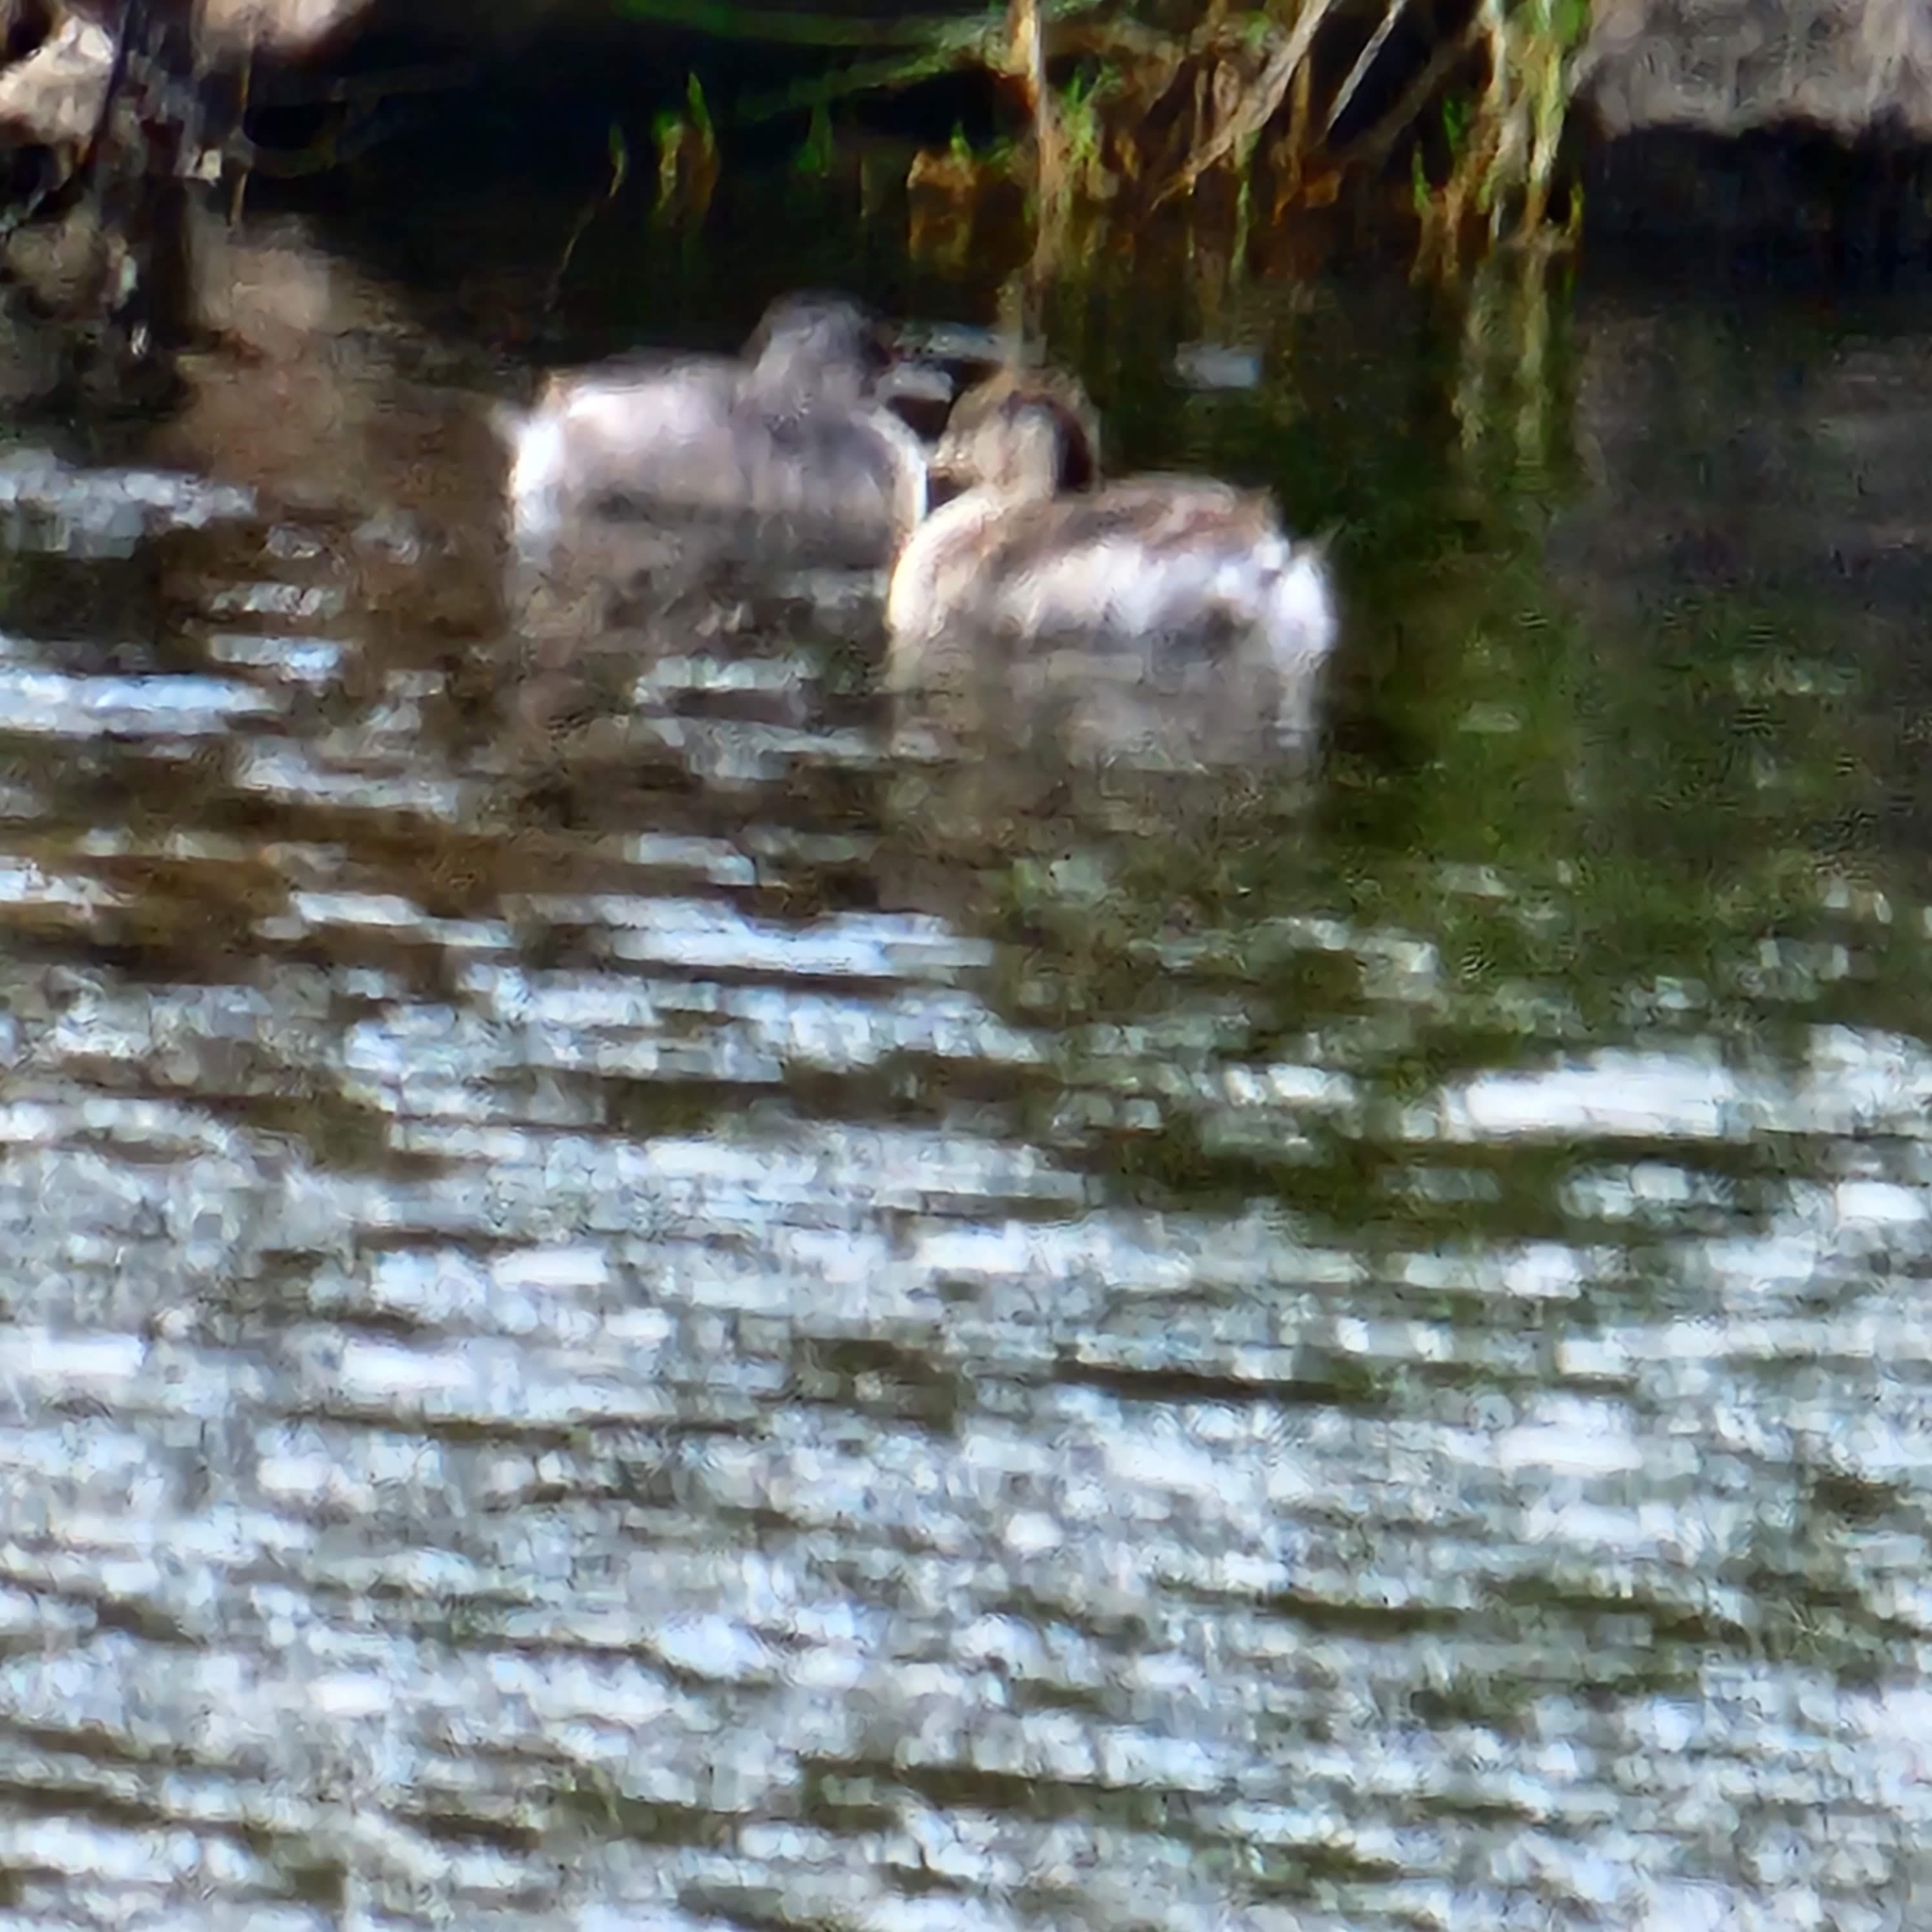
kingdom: Animalia
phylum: Chordata
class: Aves
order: Podicipediformes
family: Podicipedidae
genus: Tachybaptus
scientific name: Tachybaptus novaehollandiae
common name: Australasian grebe
